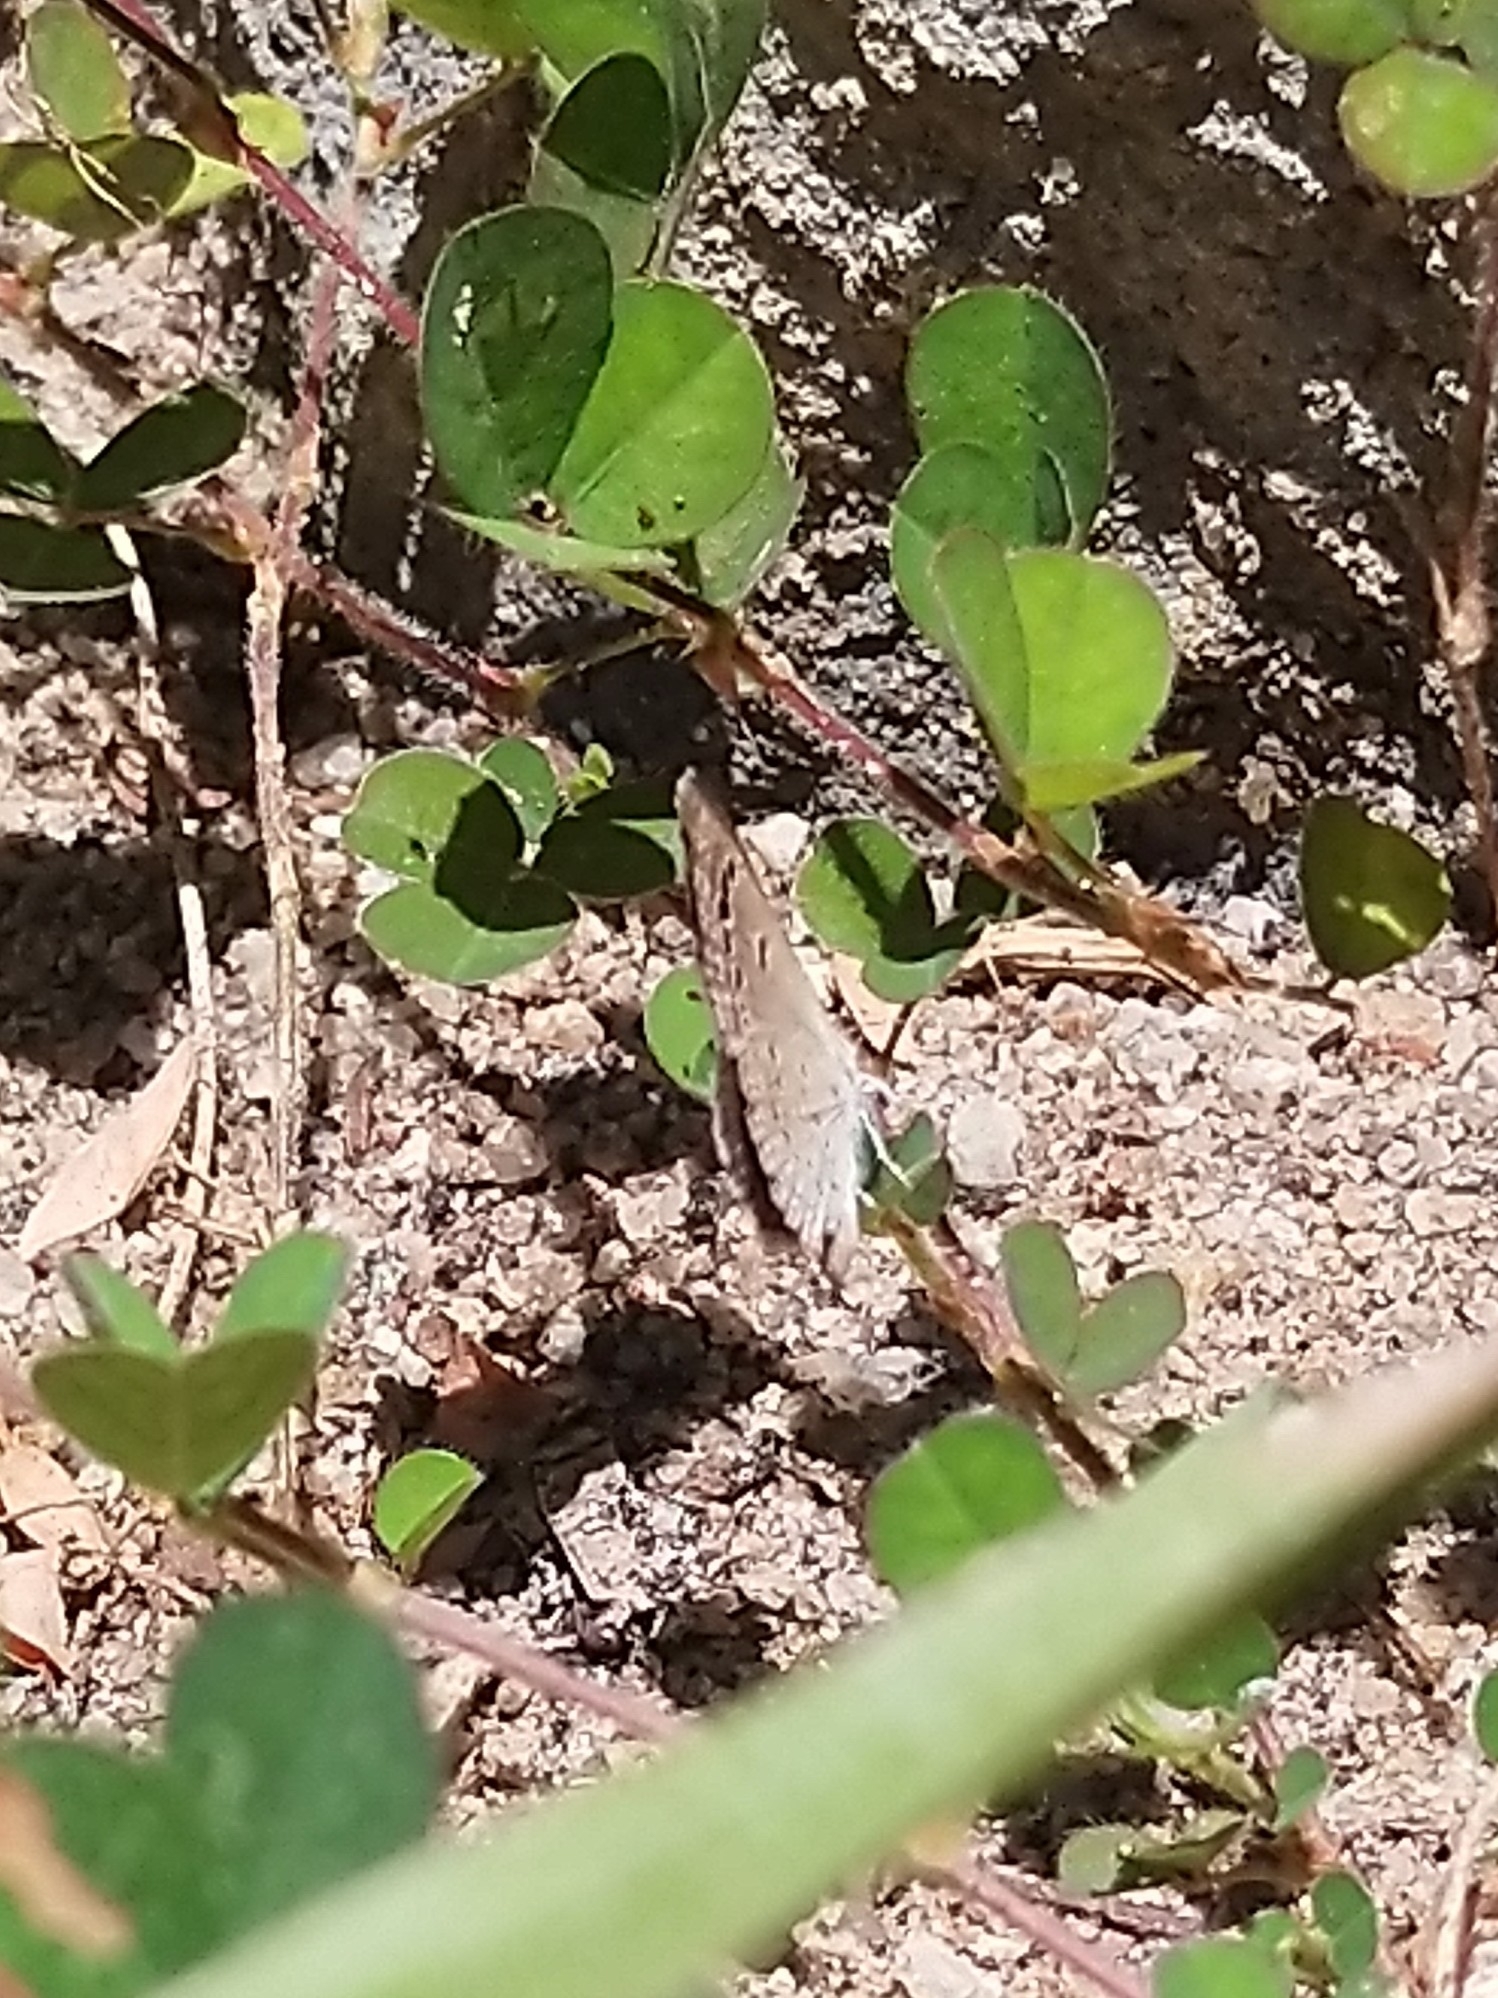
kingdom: Animalia
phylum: Arthropoda
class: Insecta
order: Lepidoptera
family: Lycaenidae
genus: Zizina
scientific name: Zizina otis
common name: Lesser grass blue
